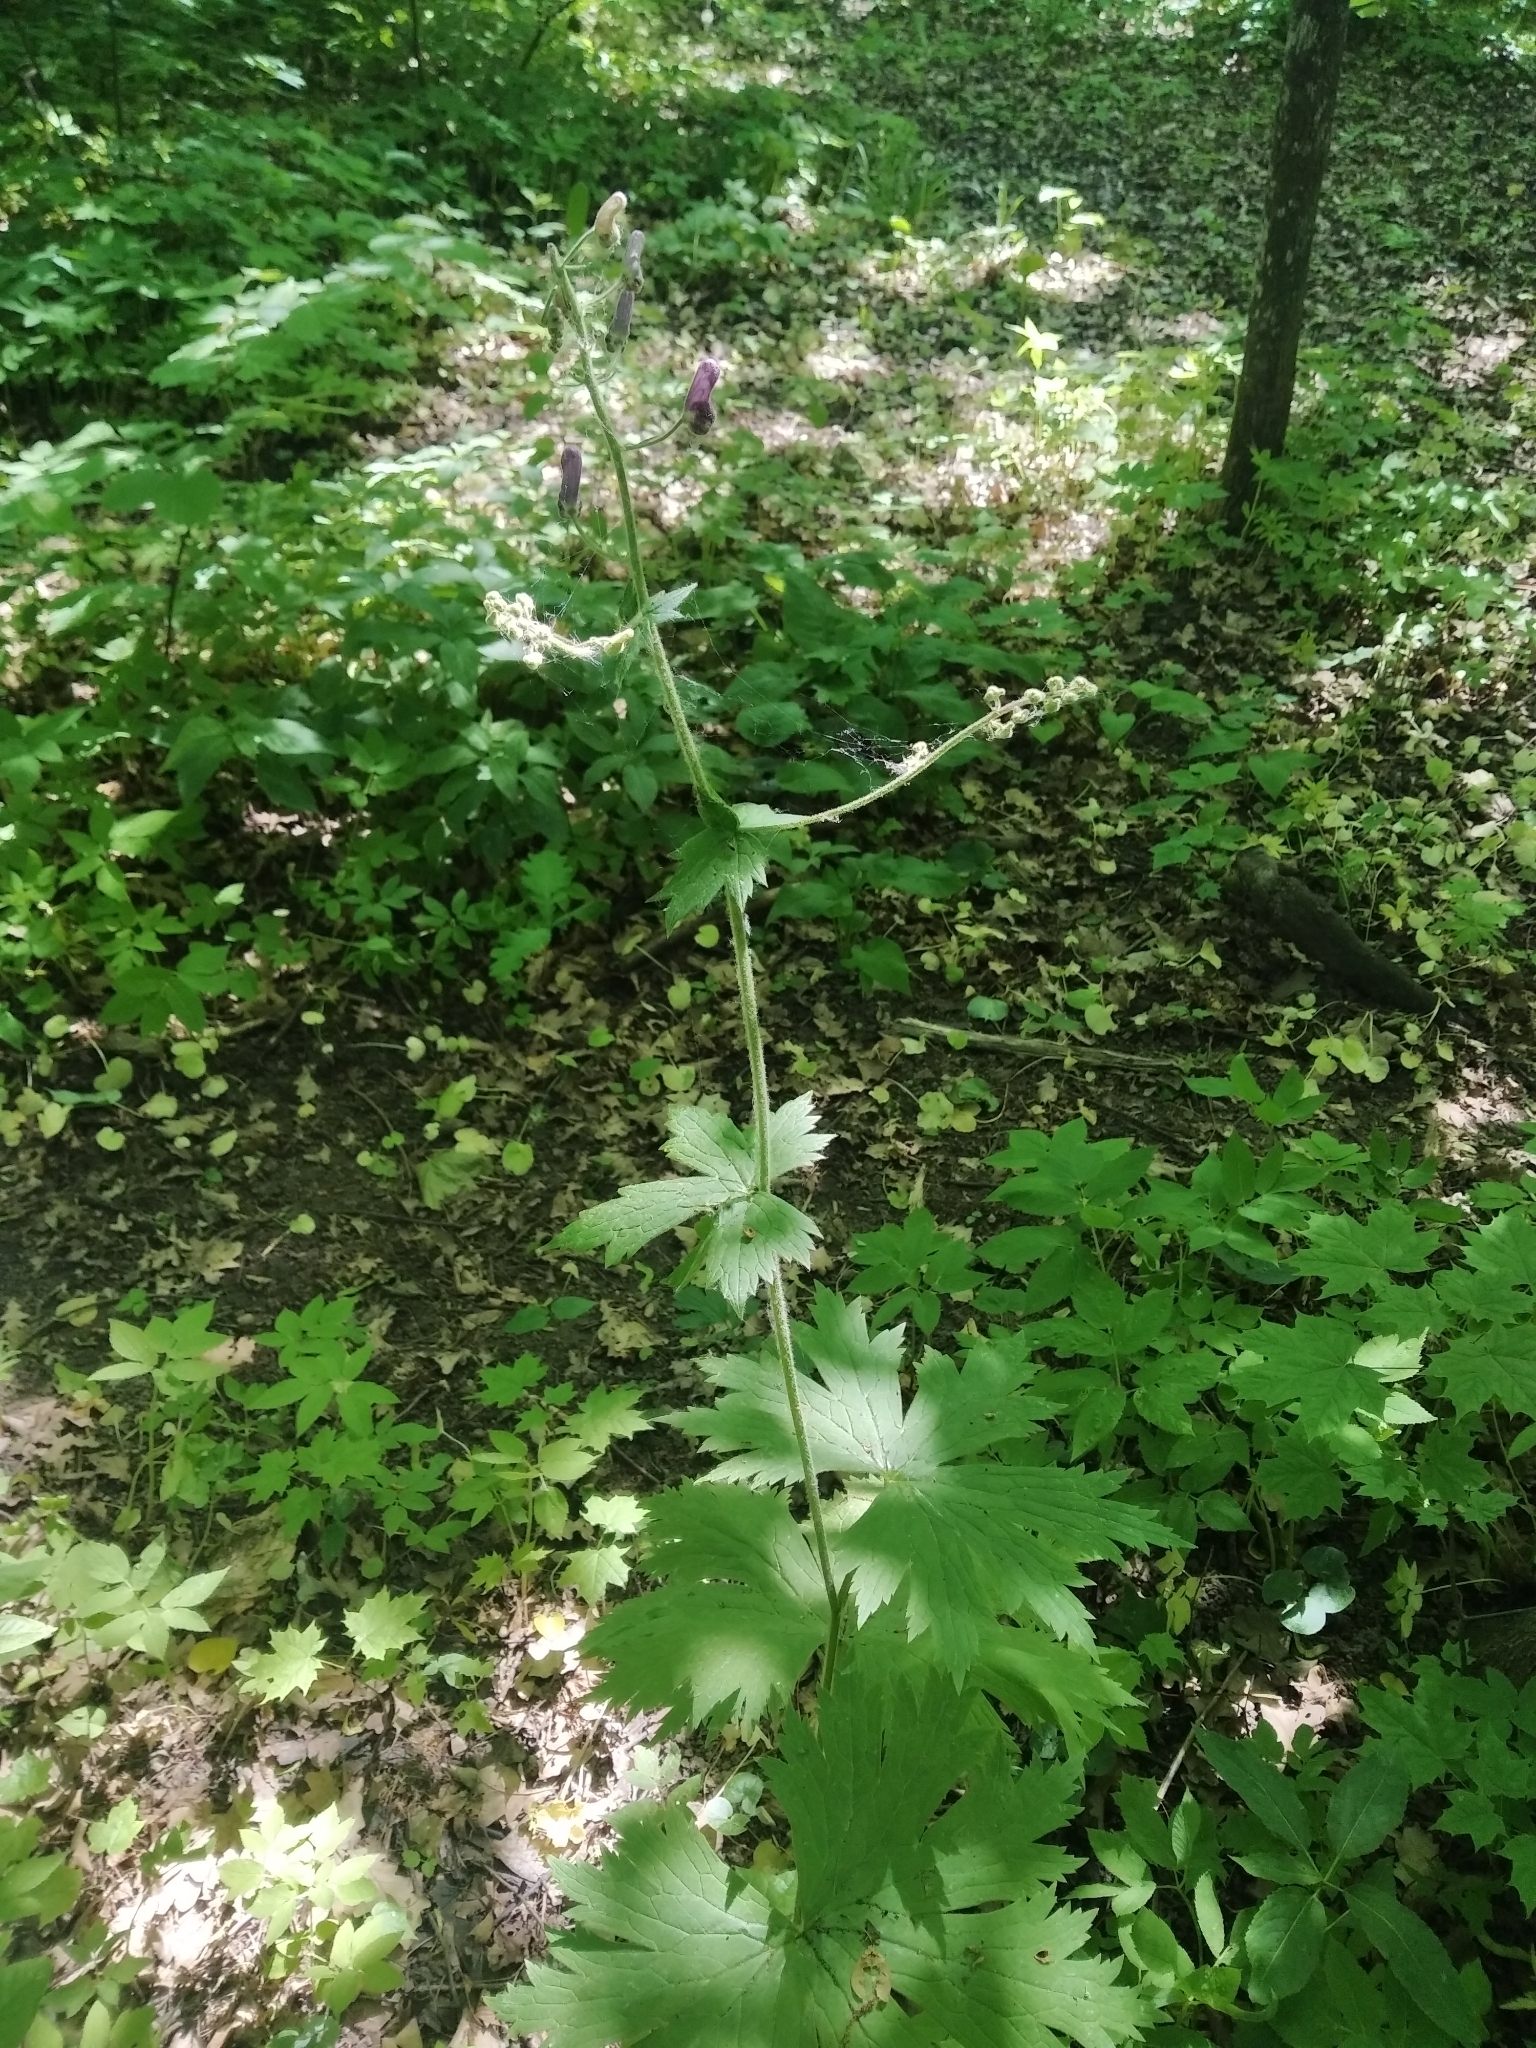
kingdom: Plantae
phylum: Tracheophyta
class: Magnoliopsida
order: Ranunculales
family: Ranunculaceae
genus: Aconitum
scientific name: Aconitum septentrionale
